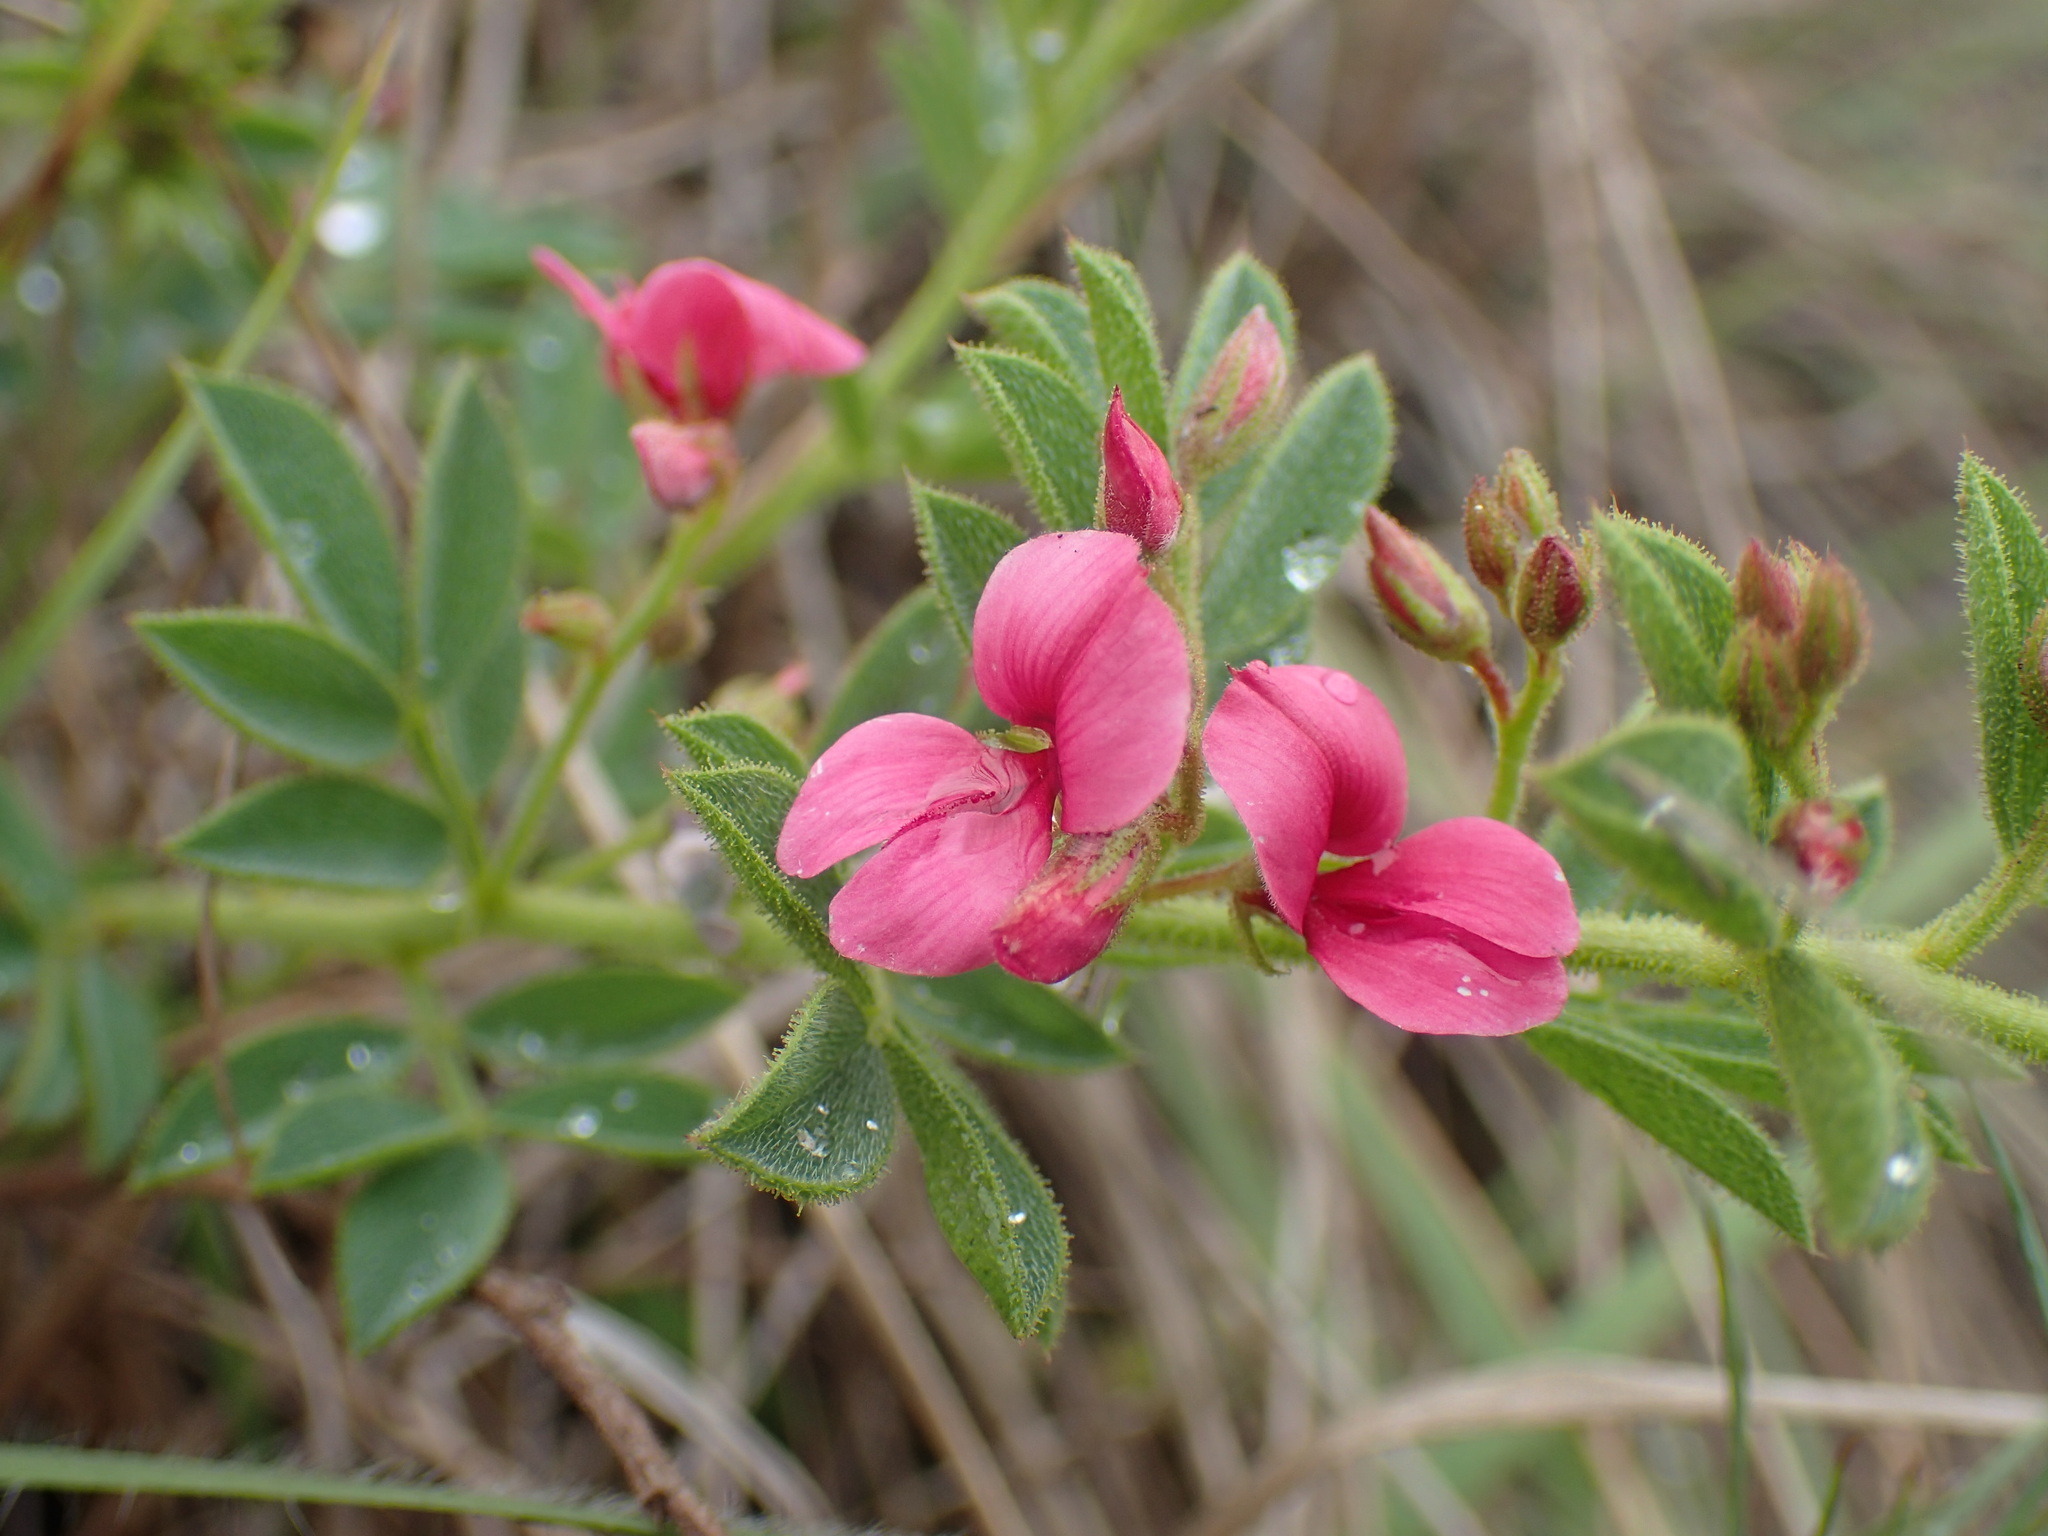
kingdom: Plantae
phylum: Tracheophyta
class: Magnoliopsida
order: Fabales
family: Fabaceae
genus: Indigofera
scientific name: Indigofera rubroglandulosa
